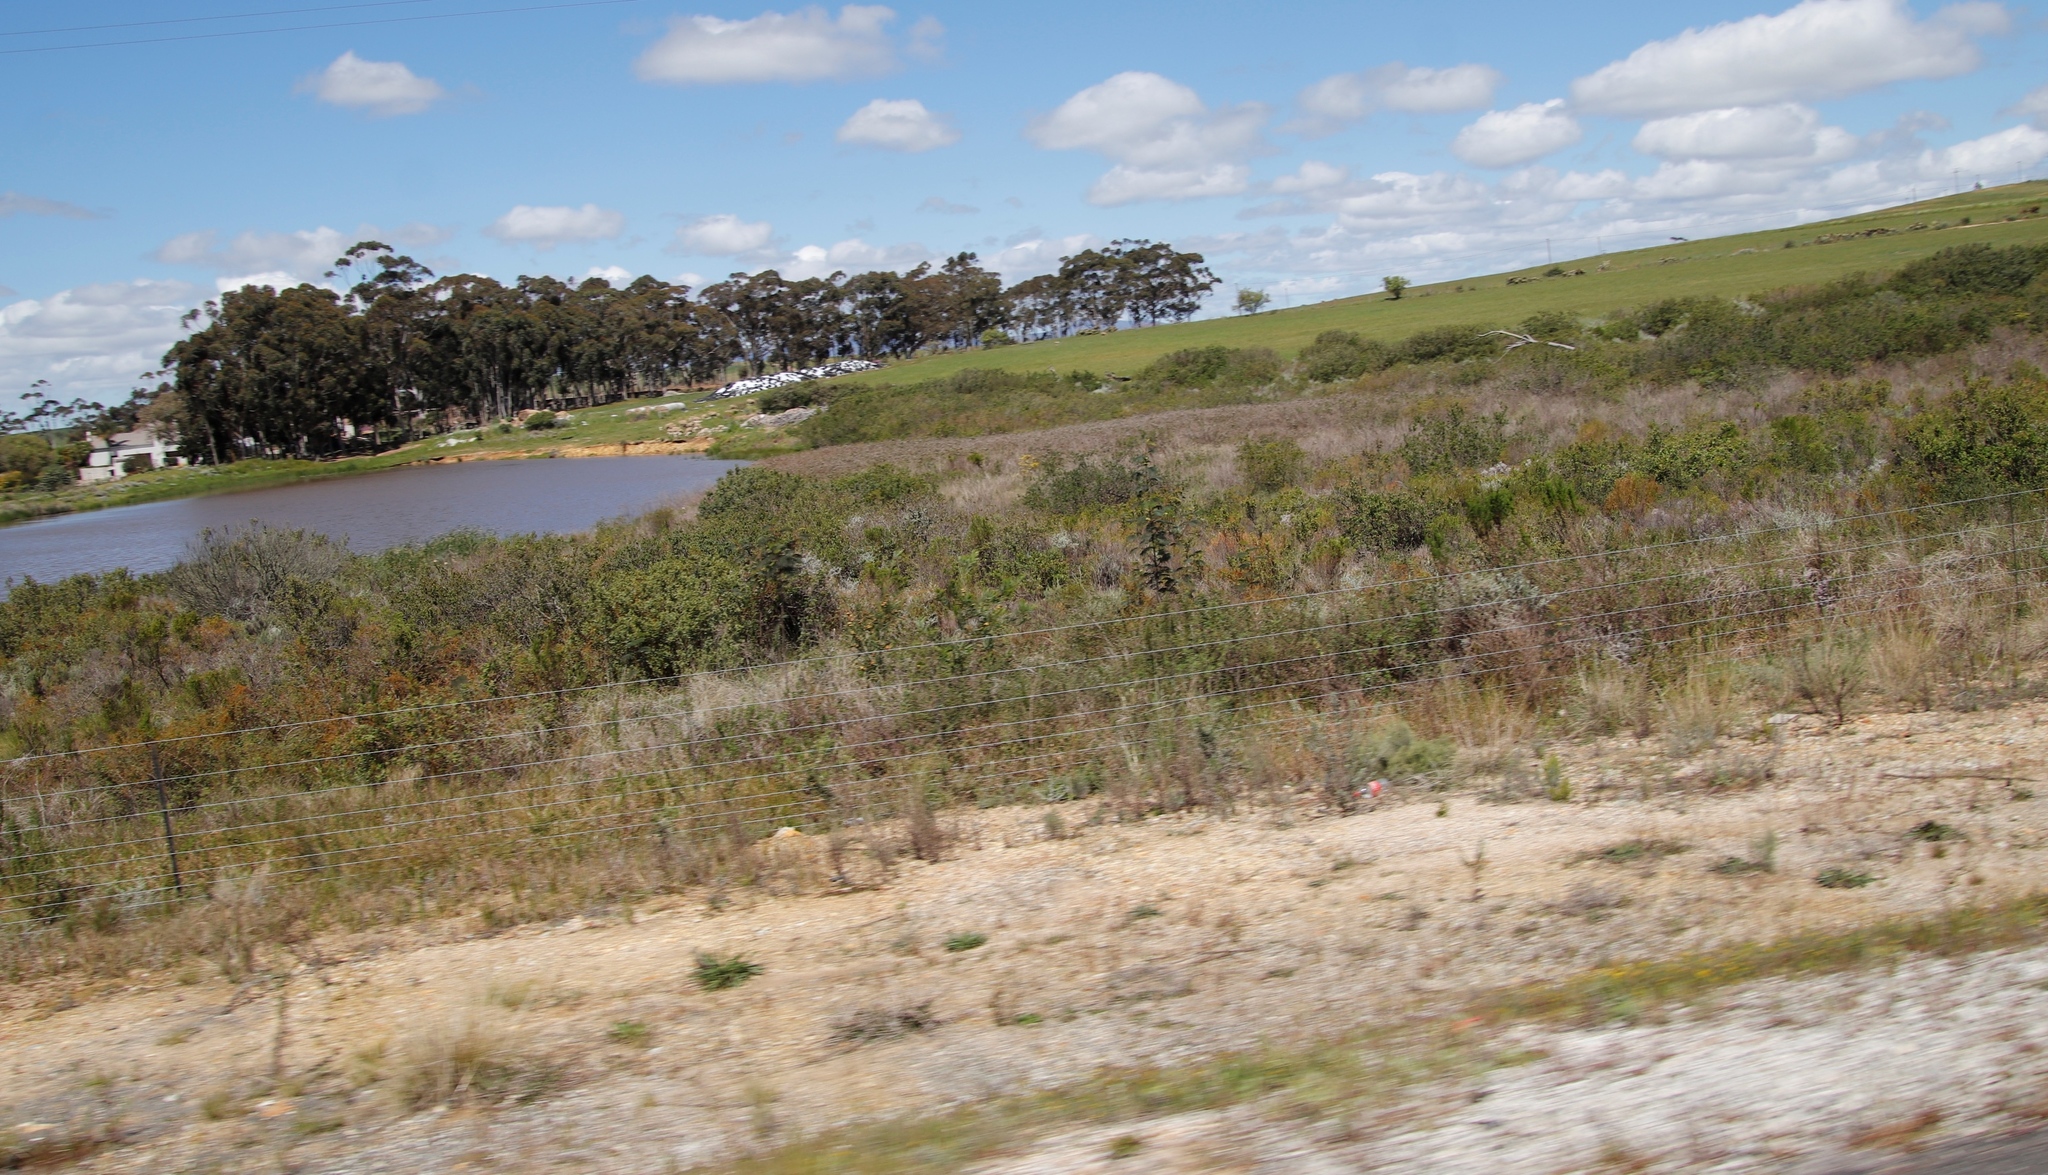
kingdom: Plantae
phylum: Tracheophyta
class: Magnoliopsida
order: Fabales
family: Fabaceae
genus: Paraserianthes
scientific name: Paraserianthes lophantha
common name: Plume albizia
